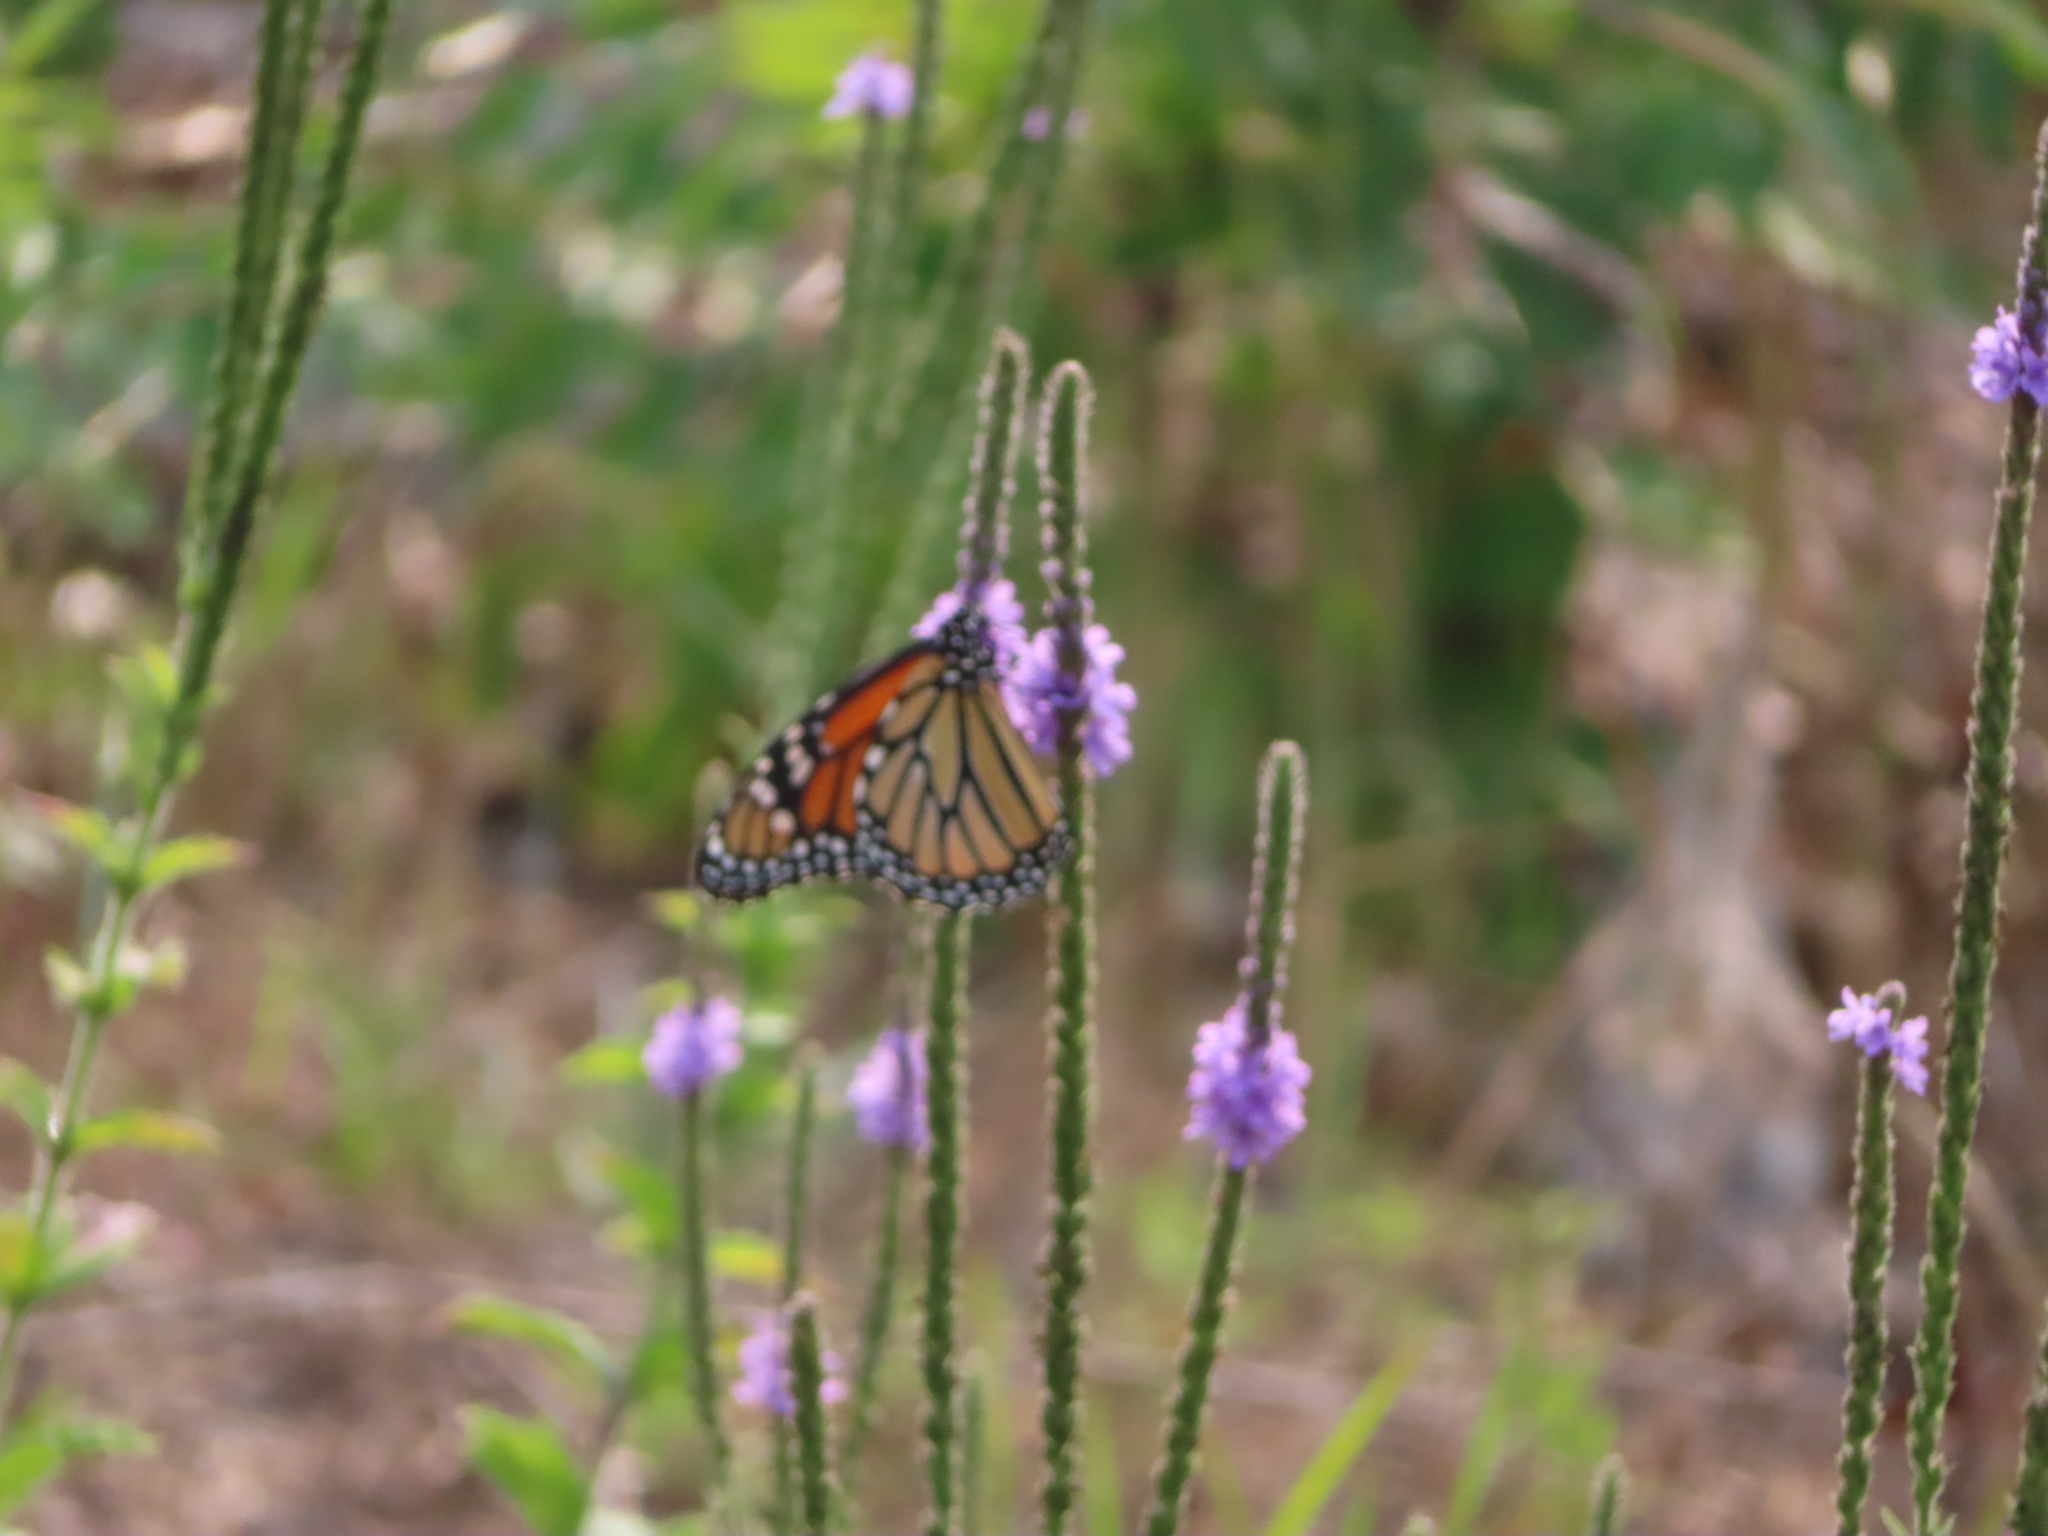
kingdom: Animalia
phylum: Arthropoda
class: Insecta
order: Lepidoptera
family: Nymphalidae
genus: Danaus
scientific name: Danaus plexippus
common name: Monarch
